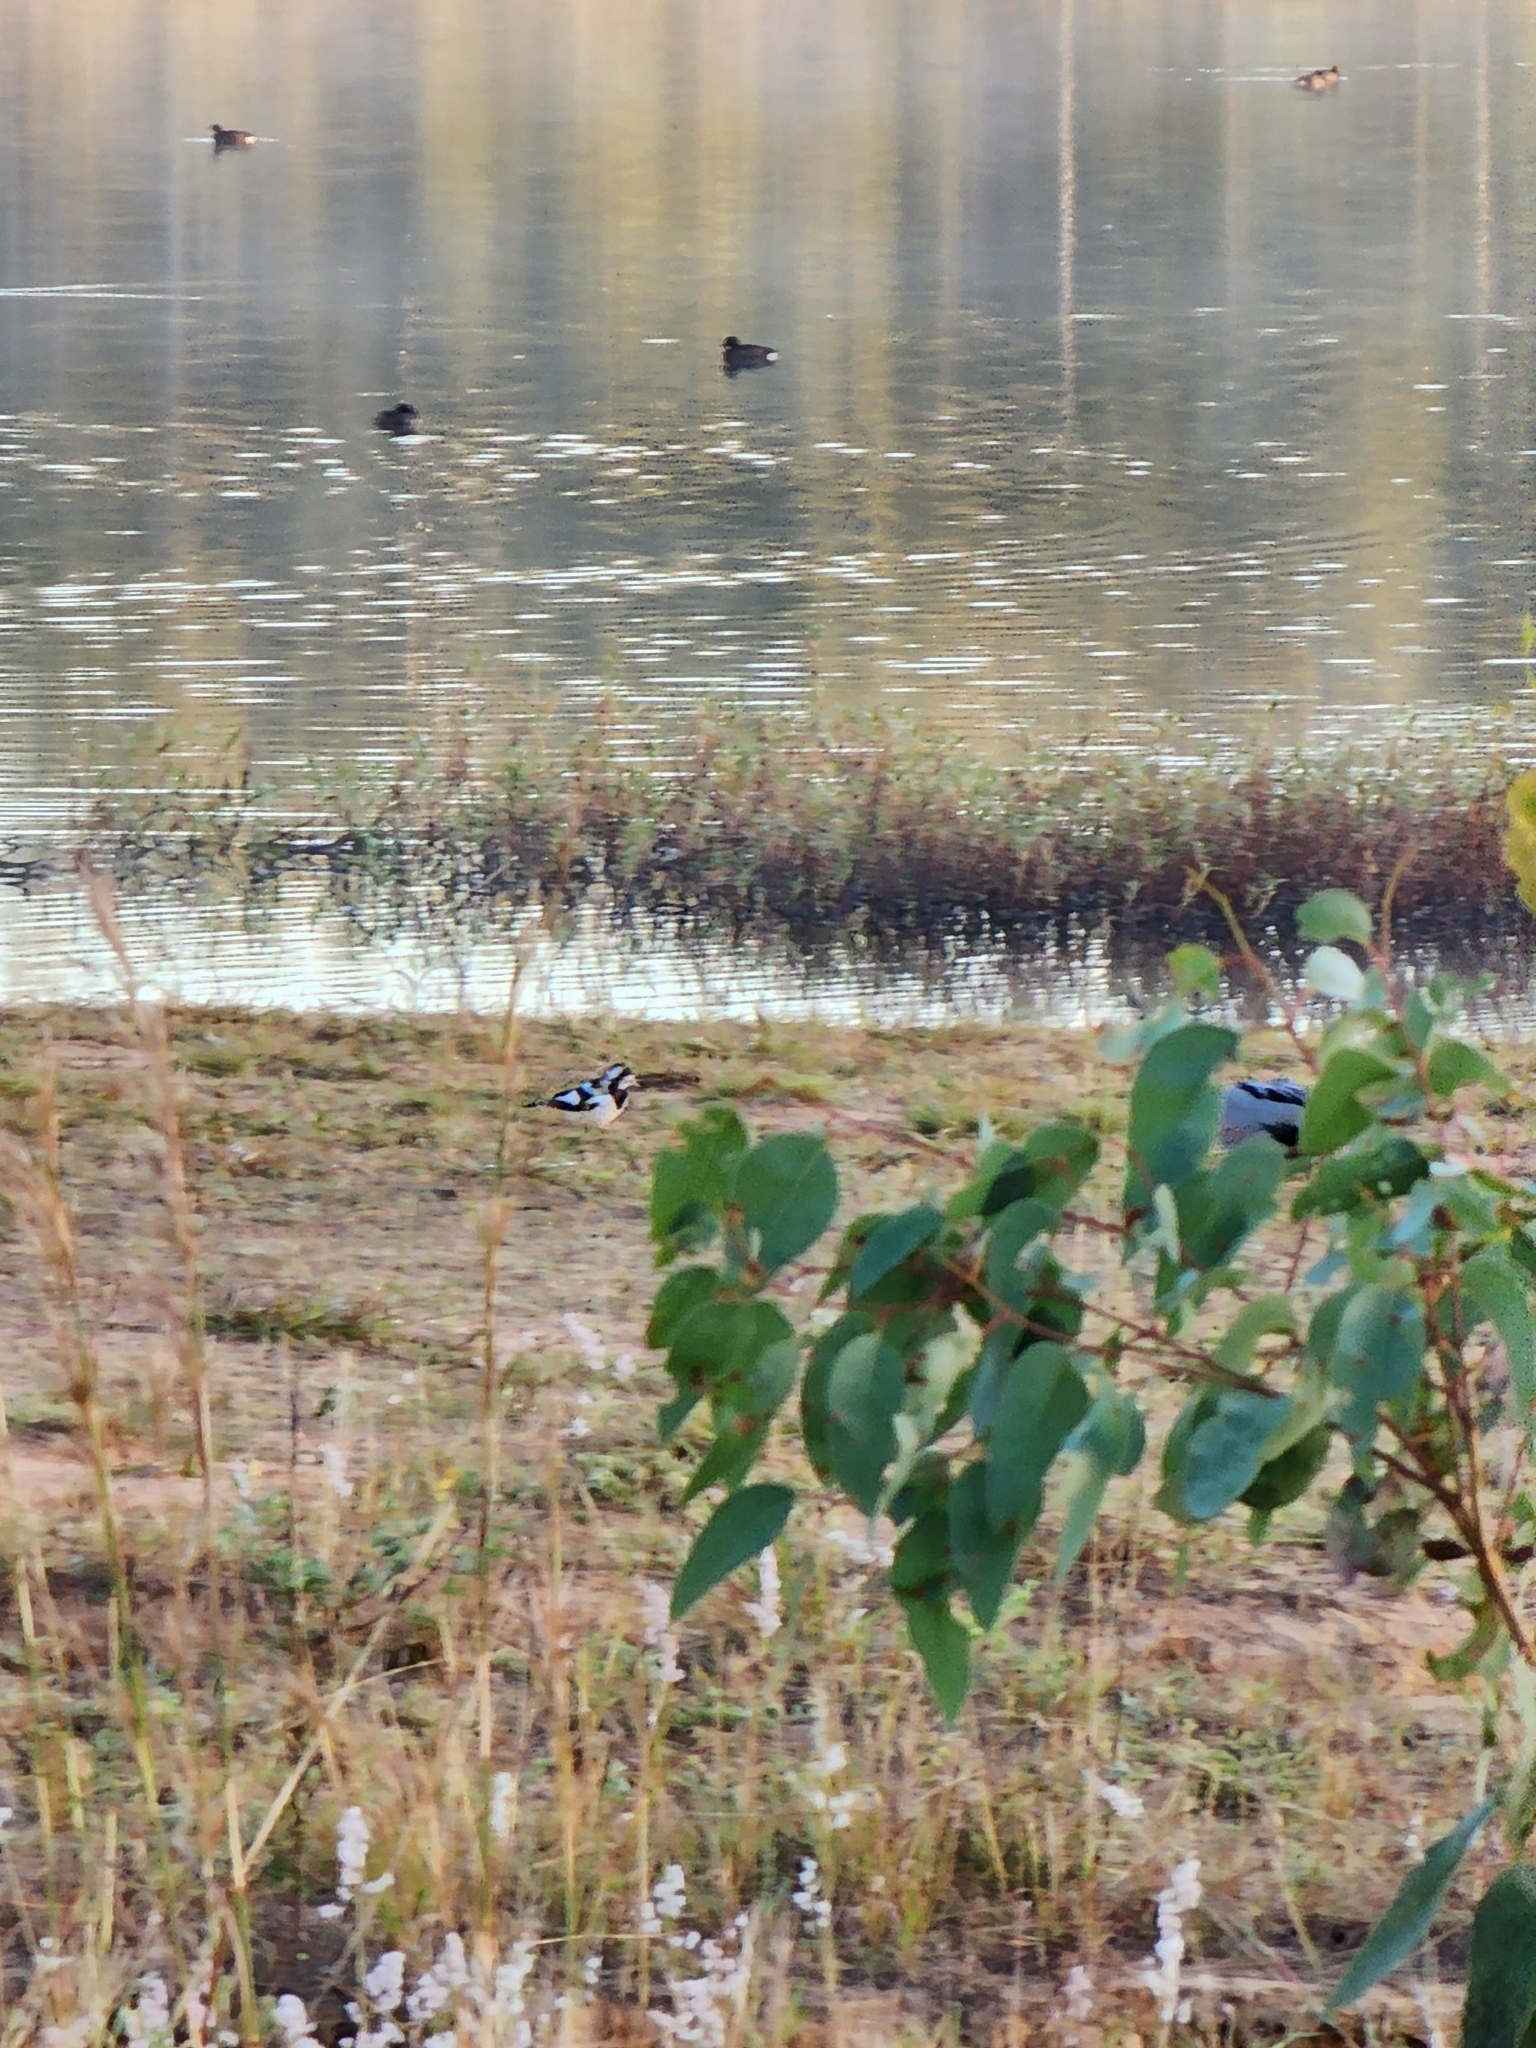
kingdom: Animalia
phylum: Chordata
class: Aves
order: Passeriformes
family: Monarchidae
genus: Grallina
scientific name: Grallina cyanoleuca
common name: Magpie-lark
